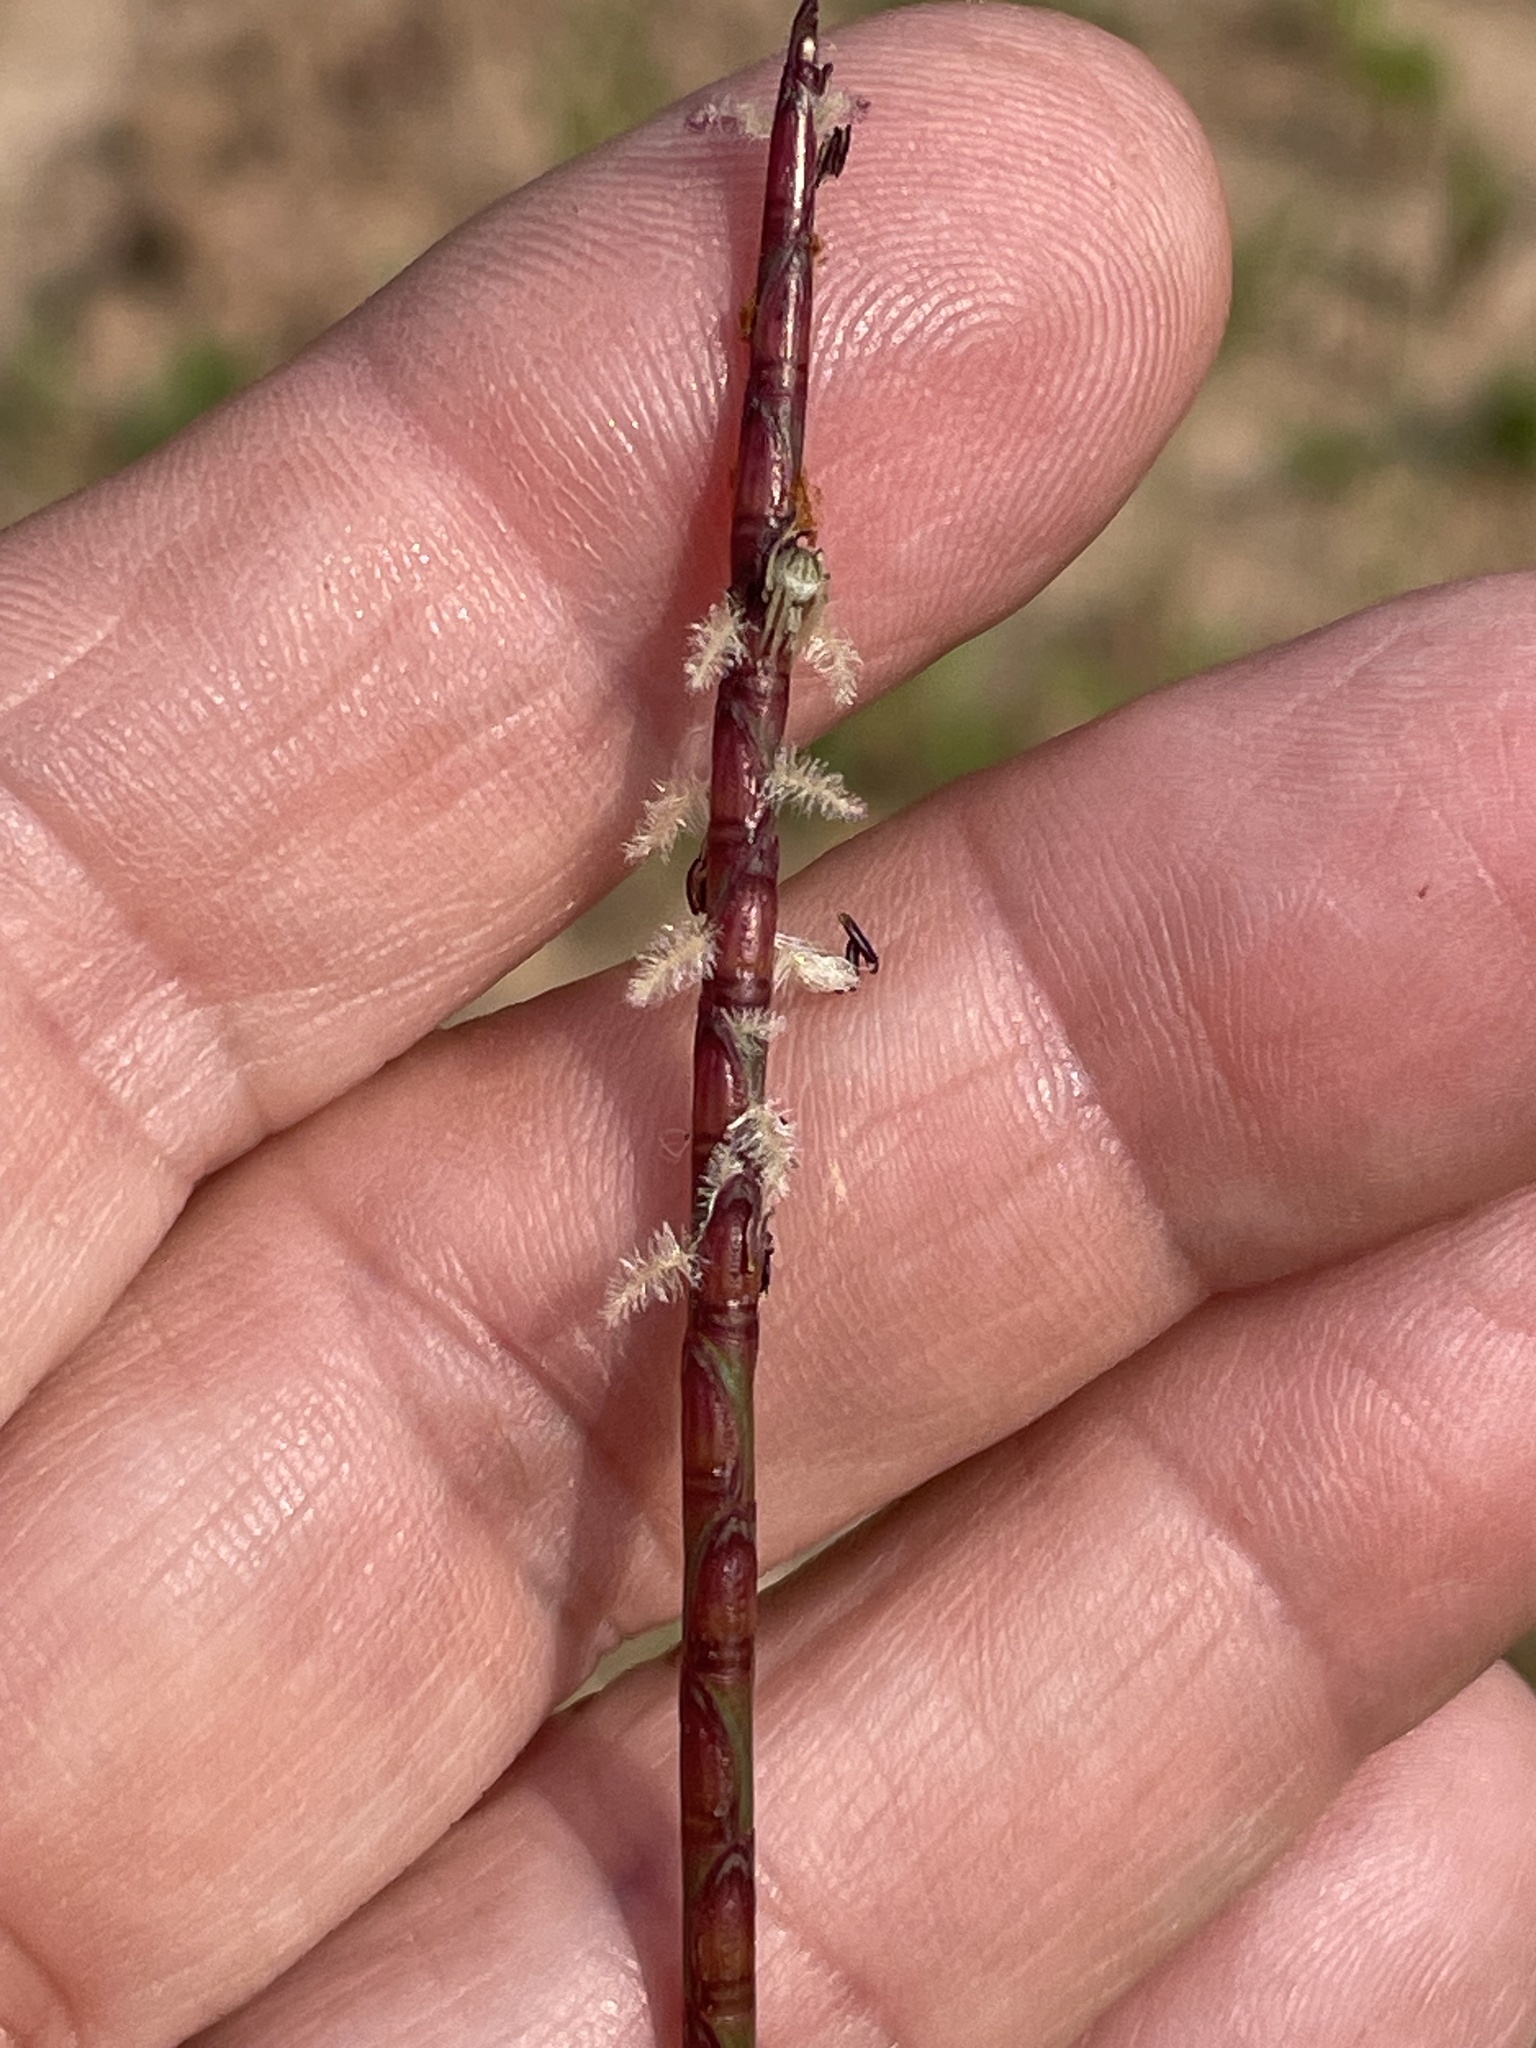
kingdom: Plantae
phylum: Tracheophyta
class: Liliopsida
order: Poales
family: Poaceae
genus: Rottboellia
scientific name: Rottboellia campestris
